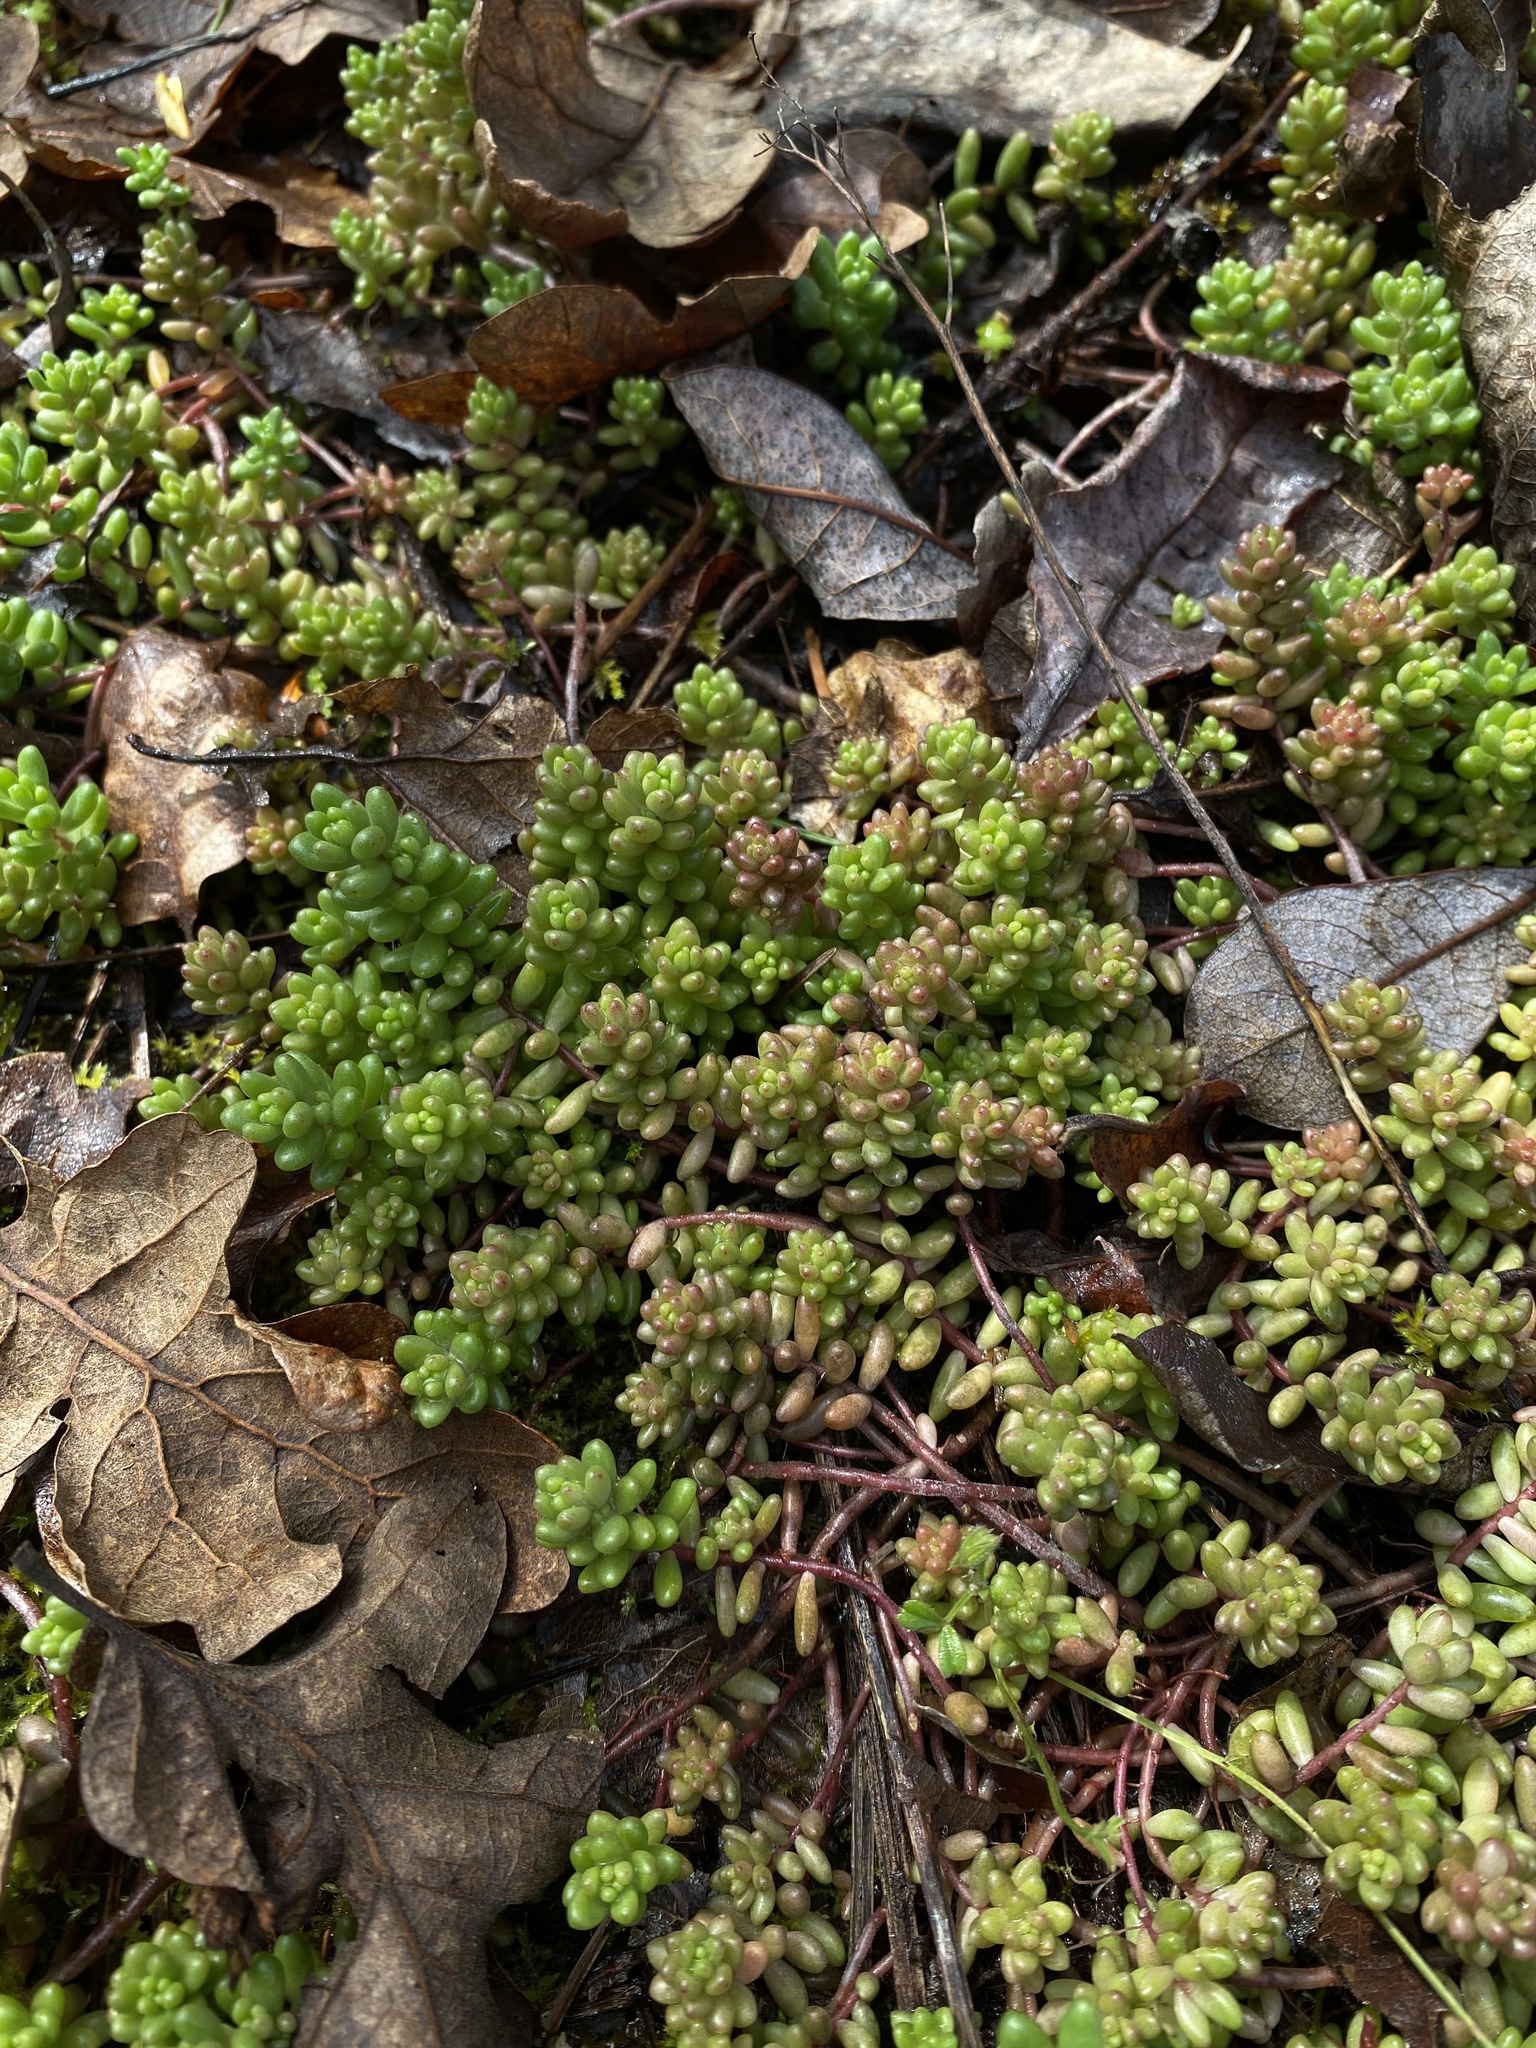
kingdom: Plantae
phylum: Tracheophyta
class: Magnoliopsida
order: Saxifragales
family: Crassulaceae
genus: Sedum
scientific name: Sedum album
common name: White stonecrop
